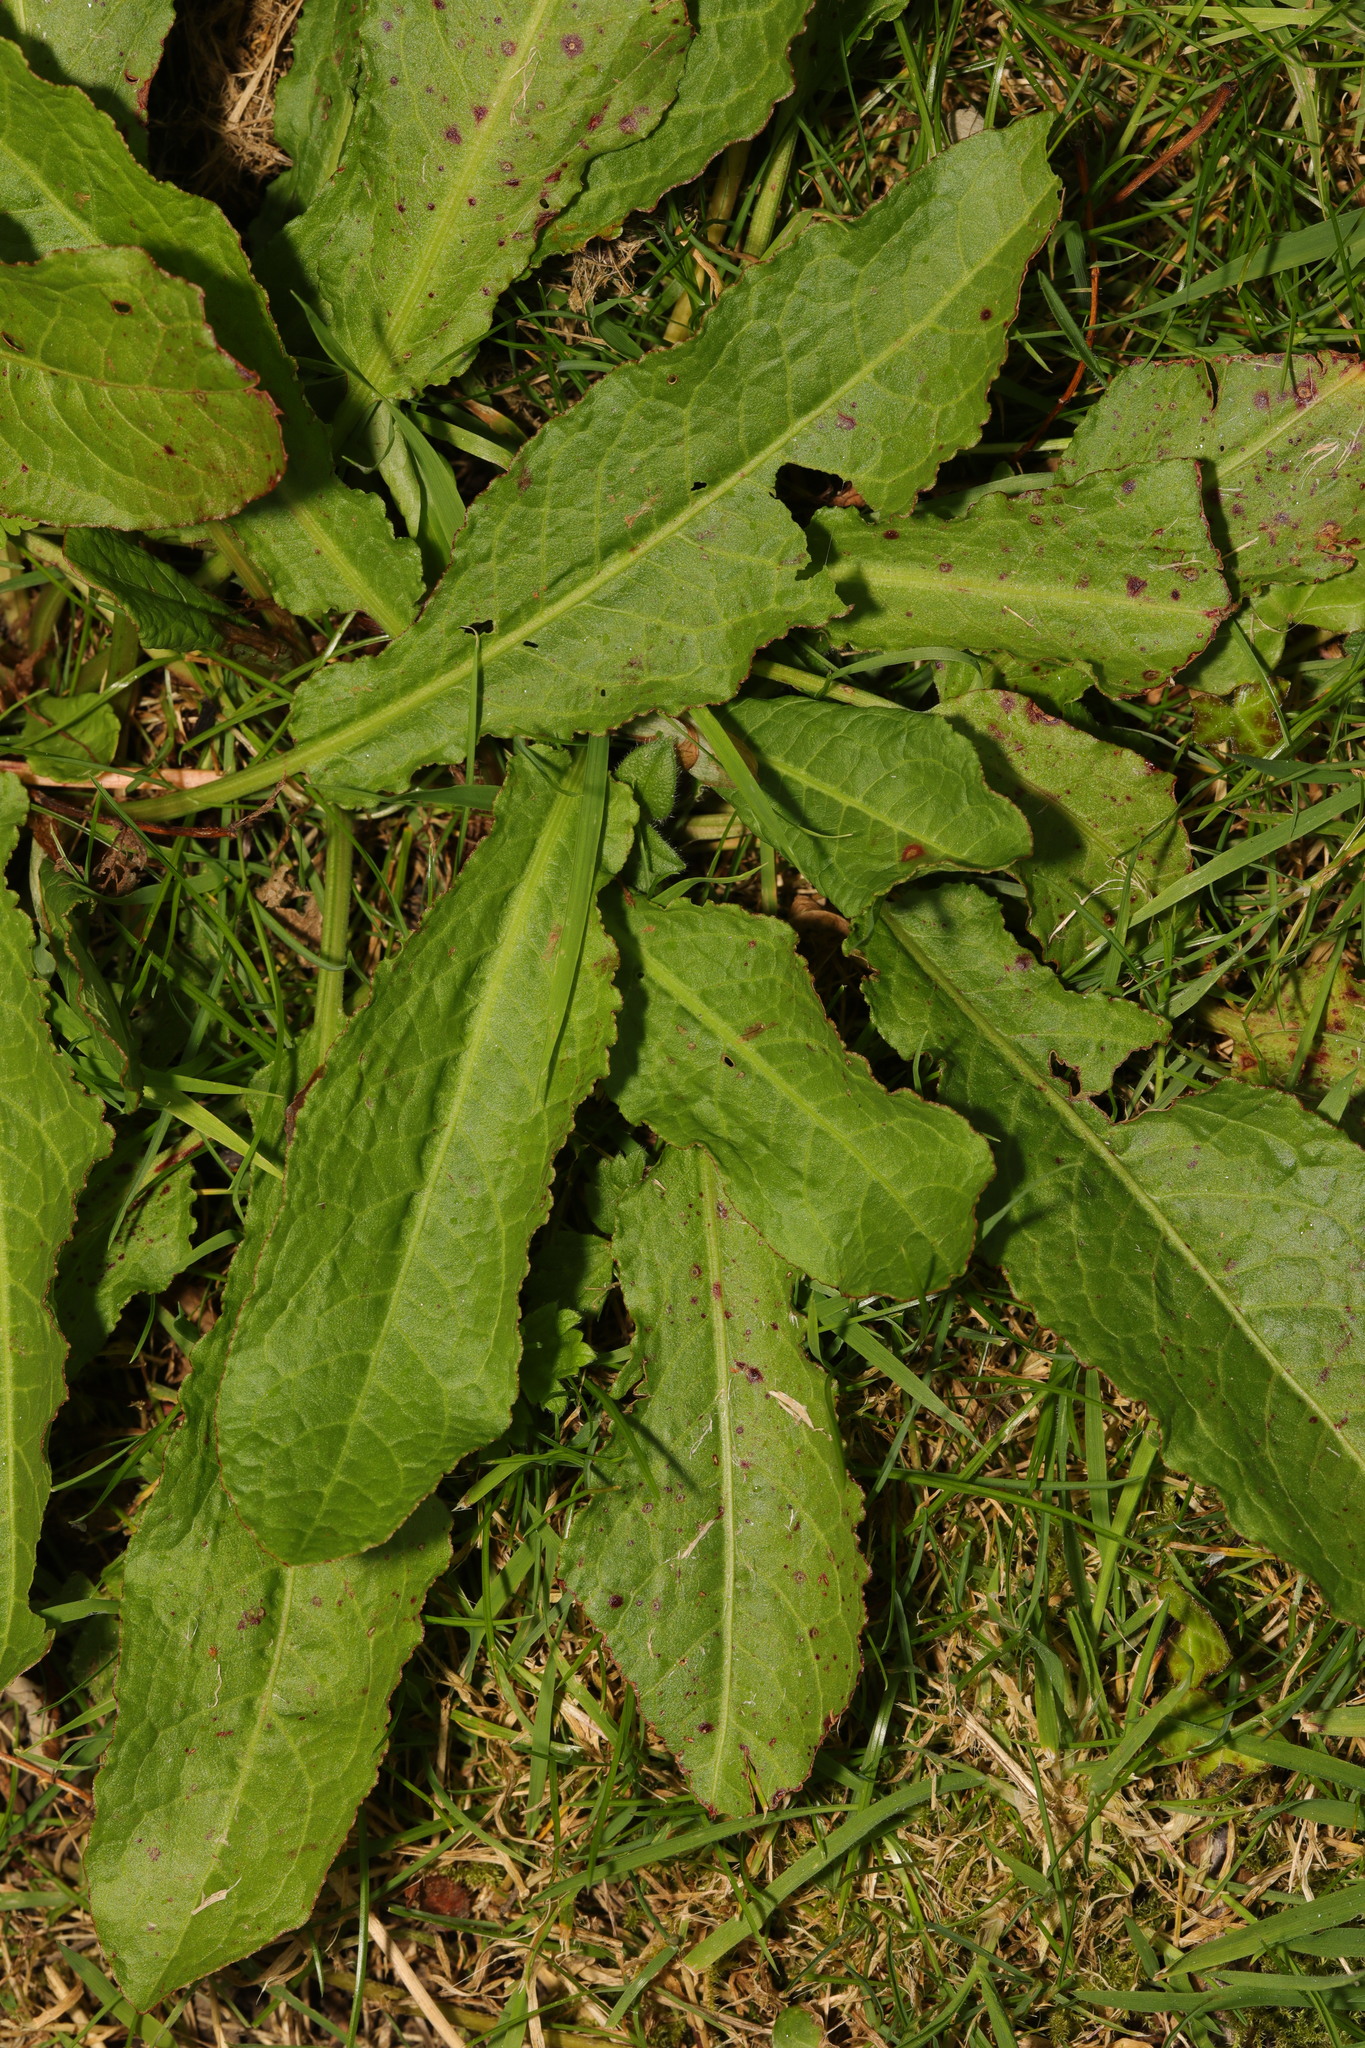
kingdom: Plantae
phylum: Tracheophyta
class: Magnoliopsida
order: Caryophyllales
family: Polygonaceae
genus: Rumex
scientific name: Rumex obtusifolius
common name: Bitter dock
